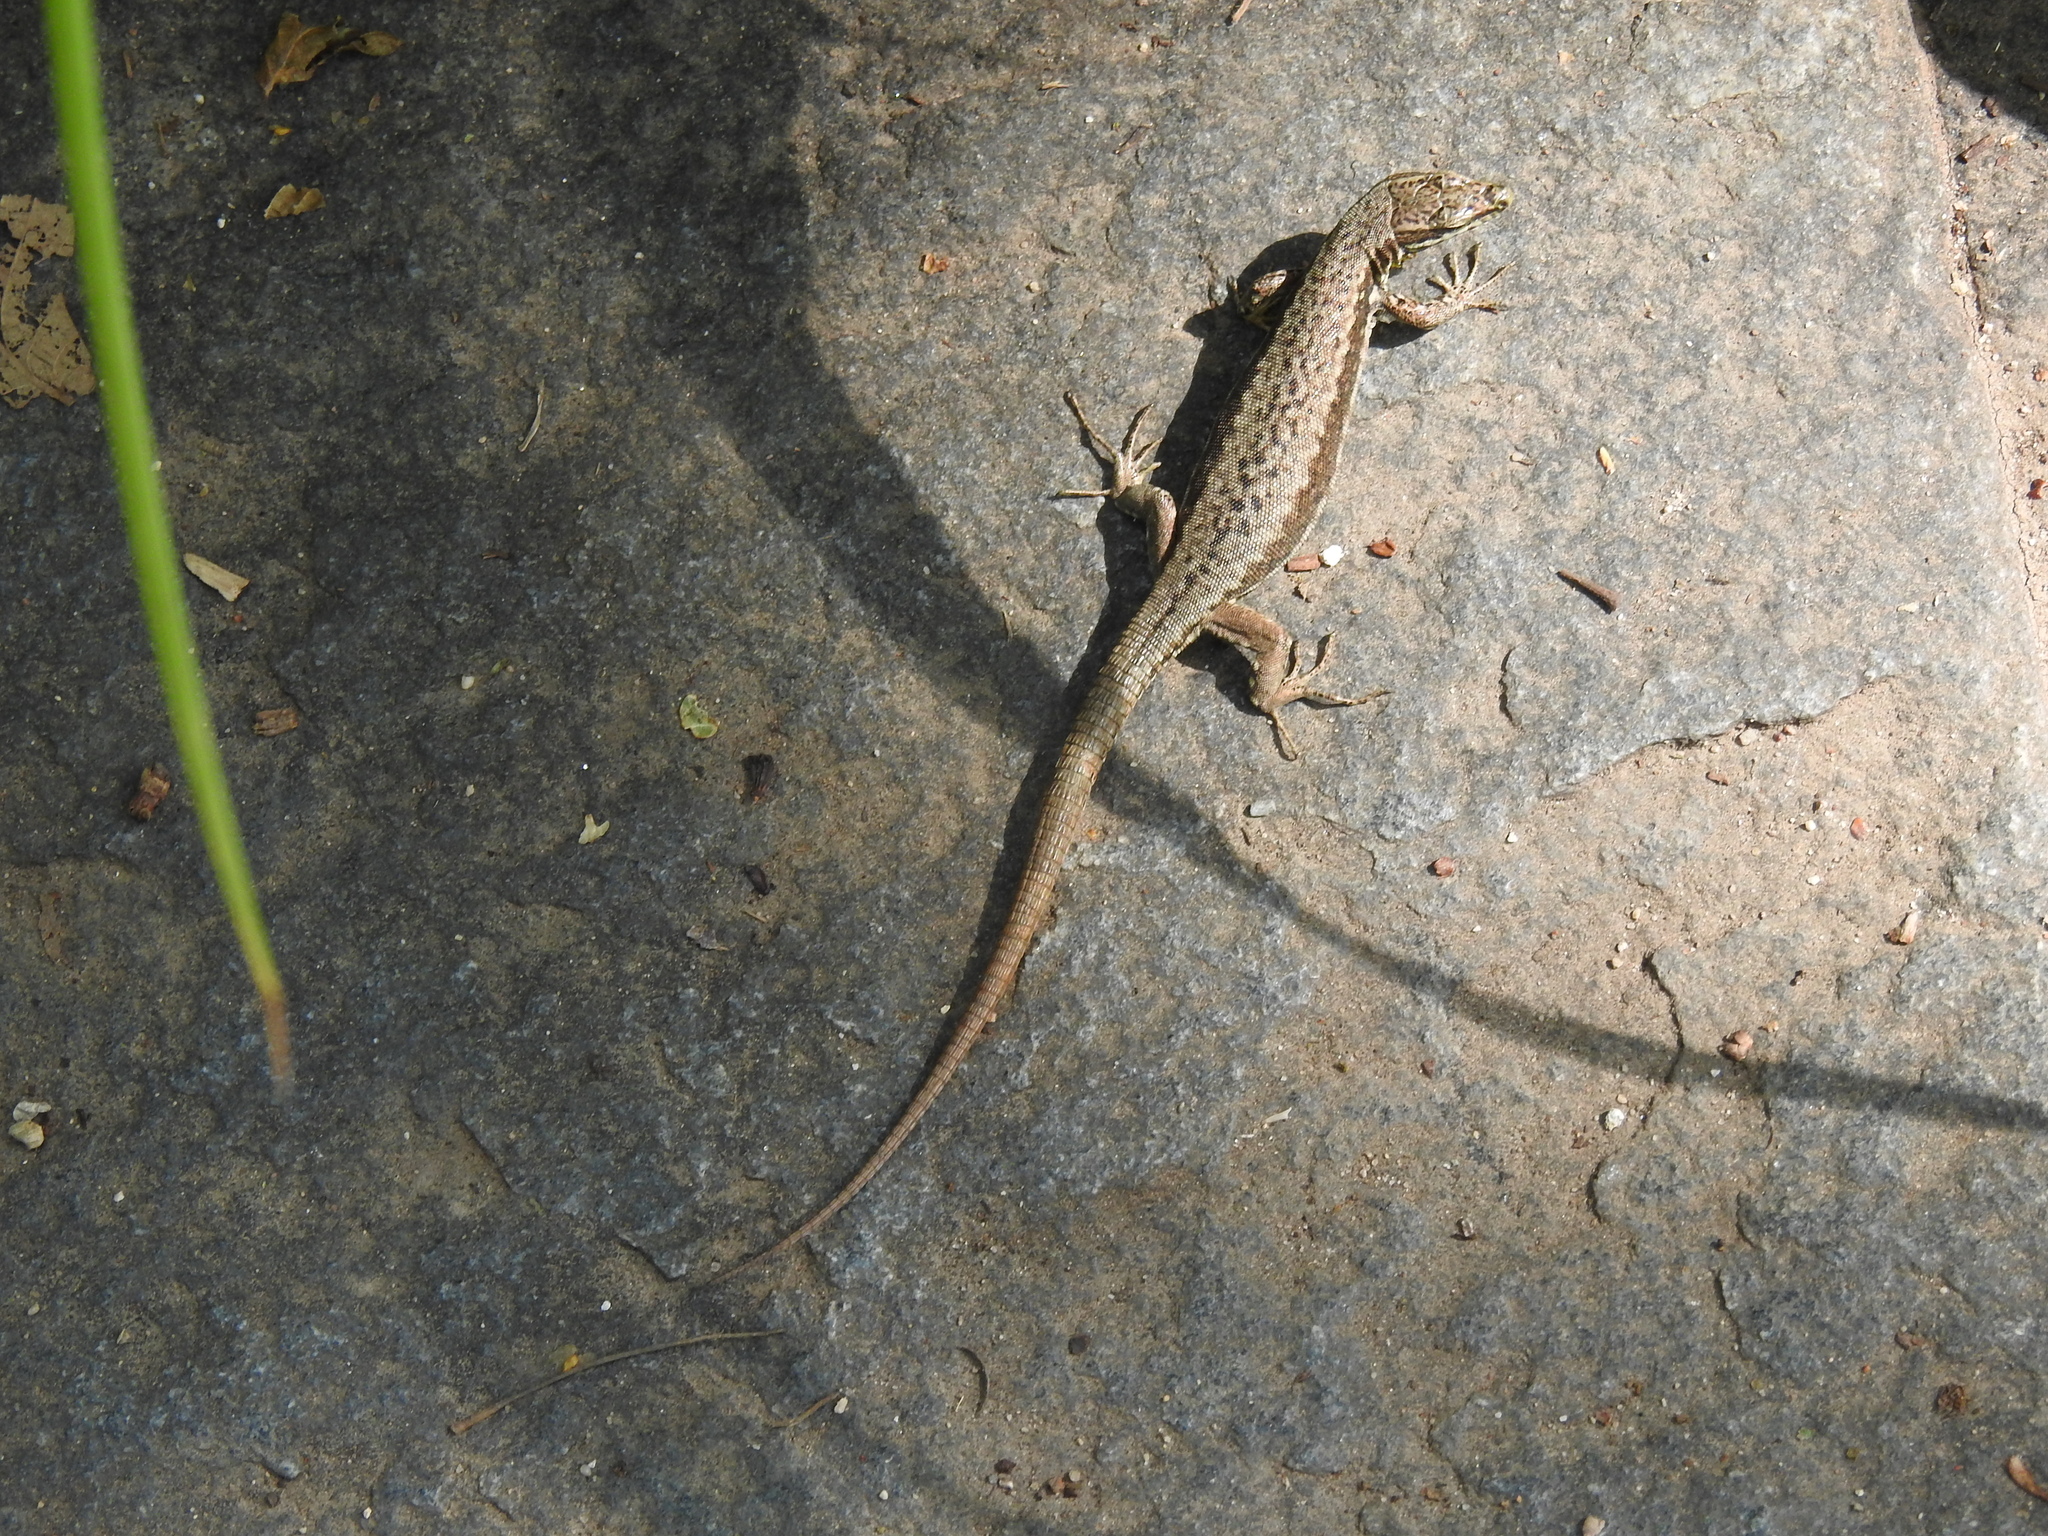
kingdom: Animalia
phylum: Chordata
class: Squamata
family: Lacertidae
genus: Podarcis
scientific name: Podarcis muralis
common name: Common wall lizard
